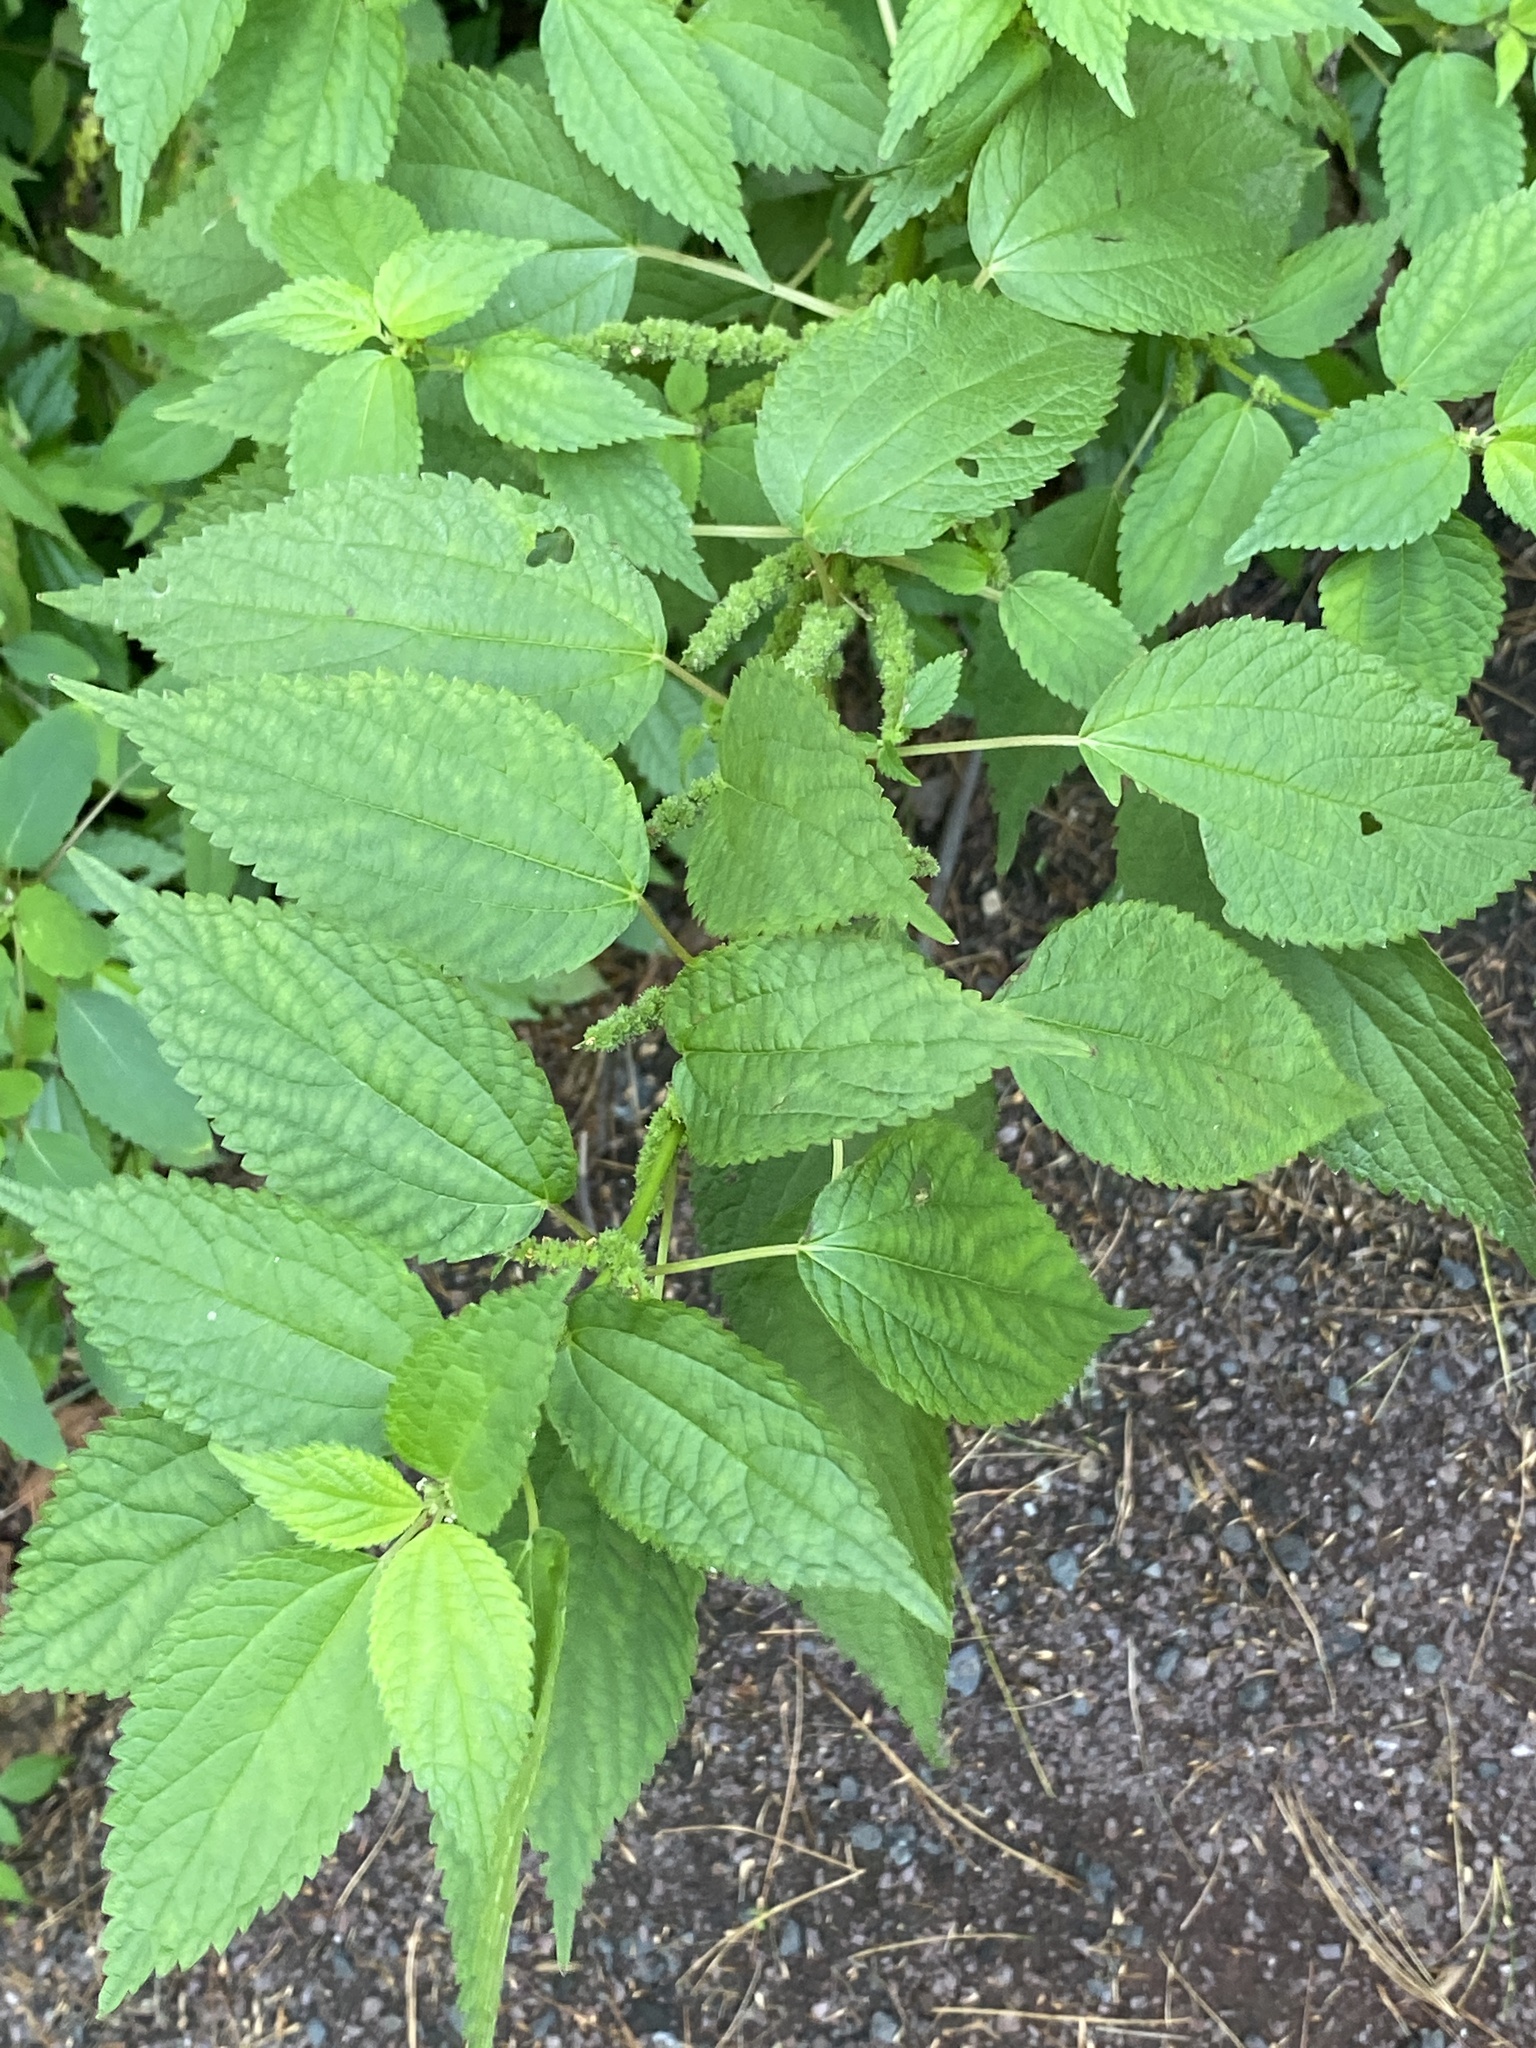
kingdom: Plantae
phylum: Tracheophyta
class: Magnoliopsida
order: Rosales
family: Urticaceae
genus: Boehmeria
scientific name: Boehmeria cylindrica
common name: Bog-hemp
